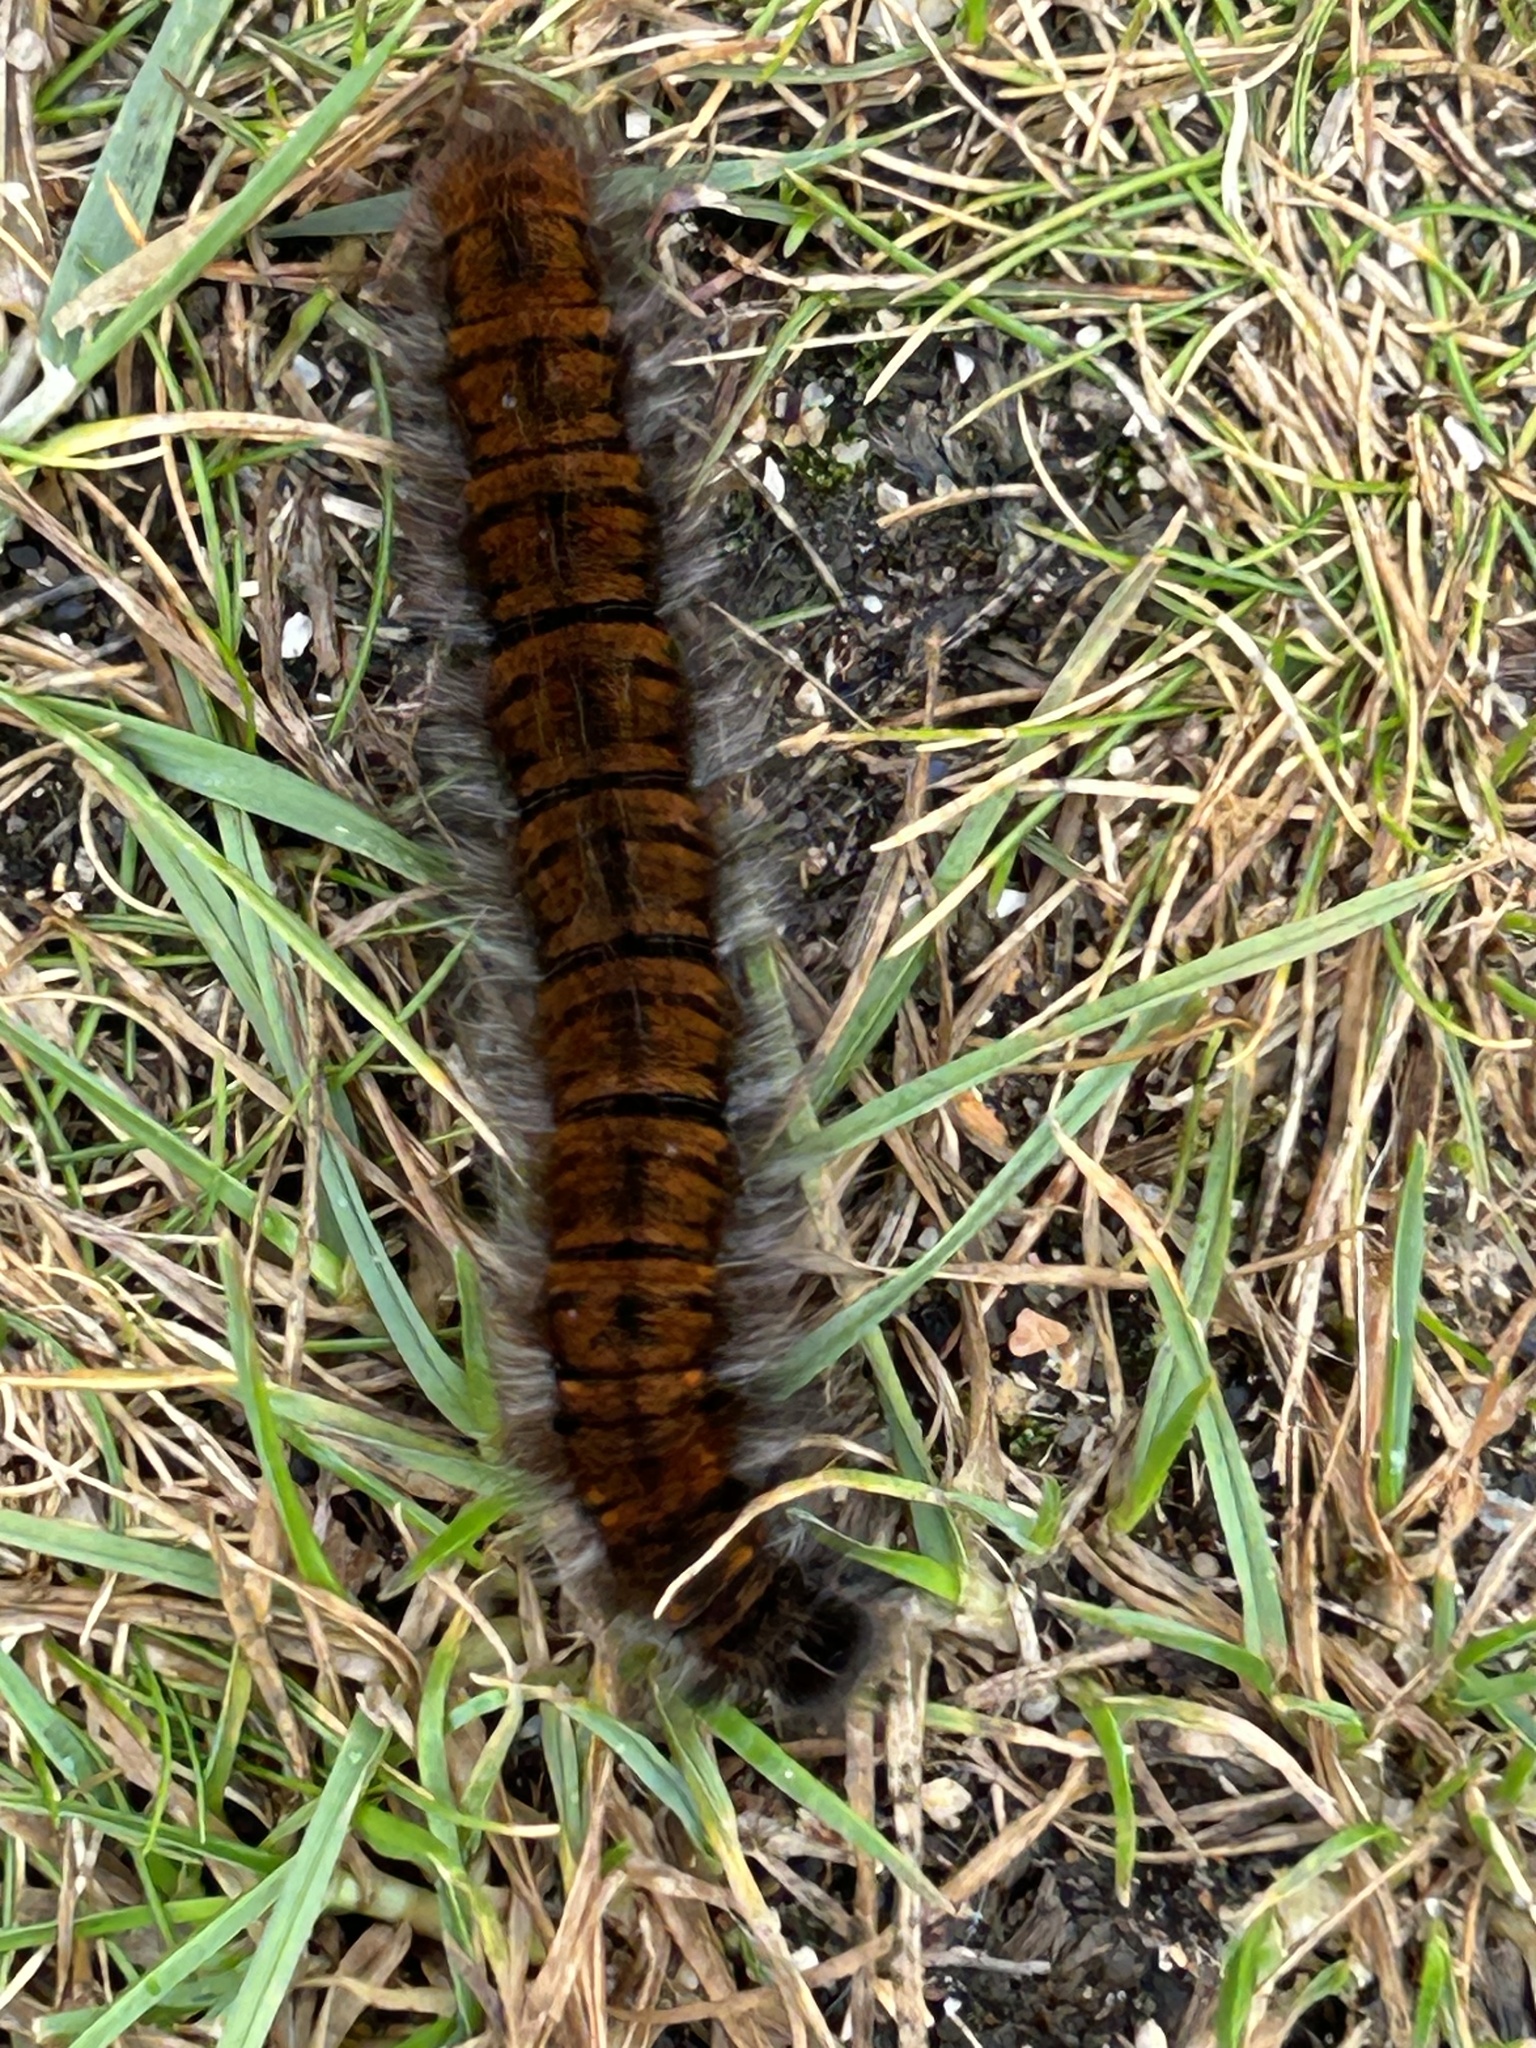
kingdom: Animalia
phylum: Arthropoda
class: Insecta
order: Lepidoptera
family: Lasiocampidae
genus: Macrothylacia
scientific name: Macrothylacia rubi
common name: Fox moth
